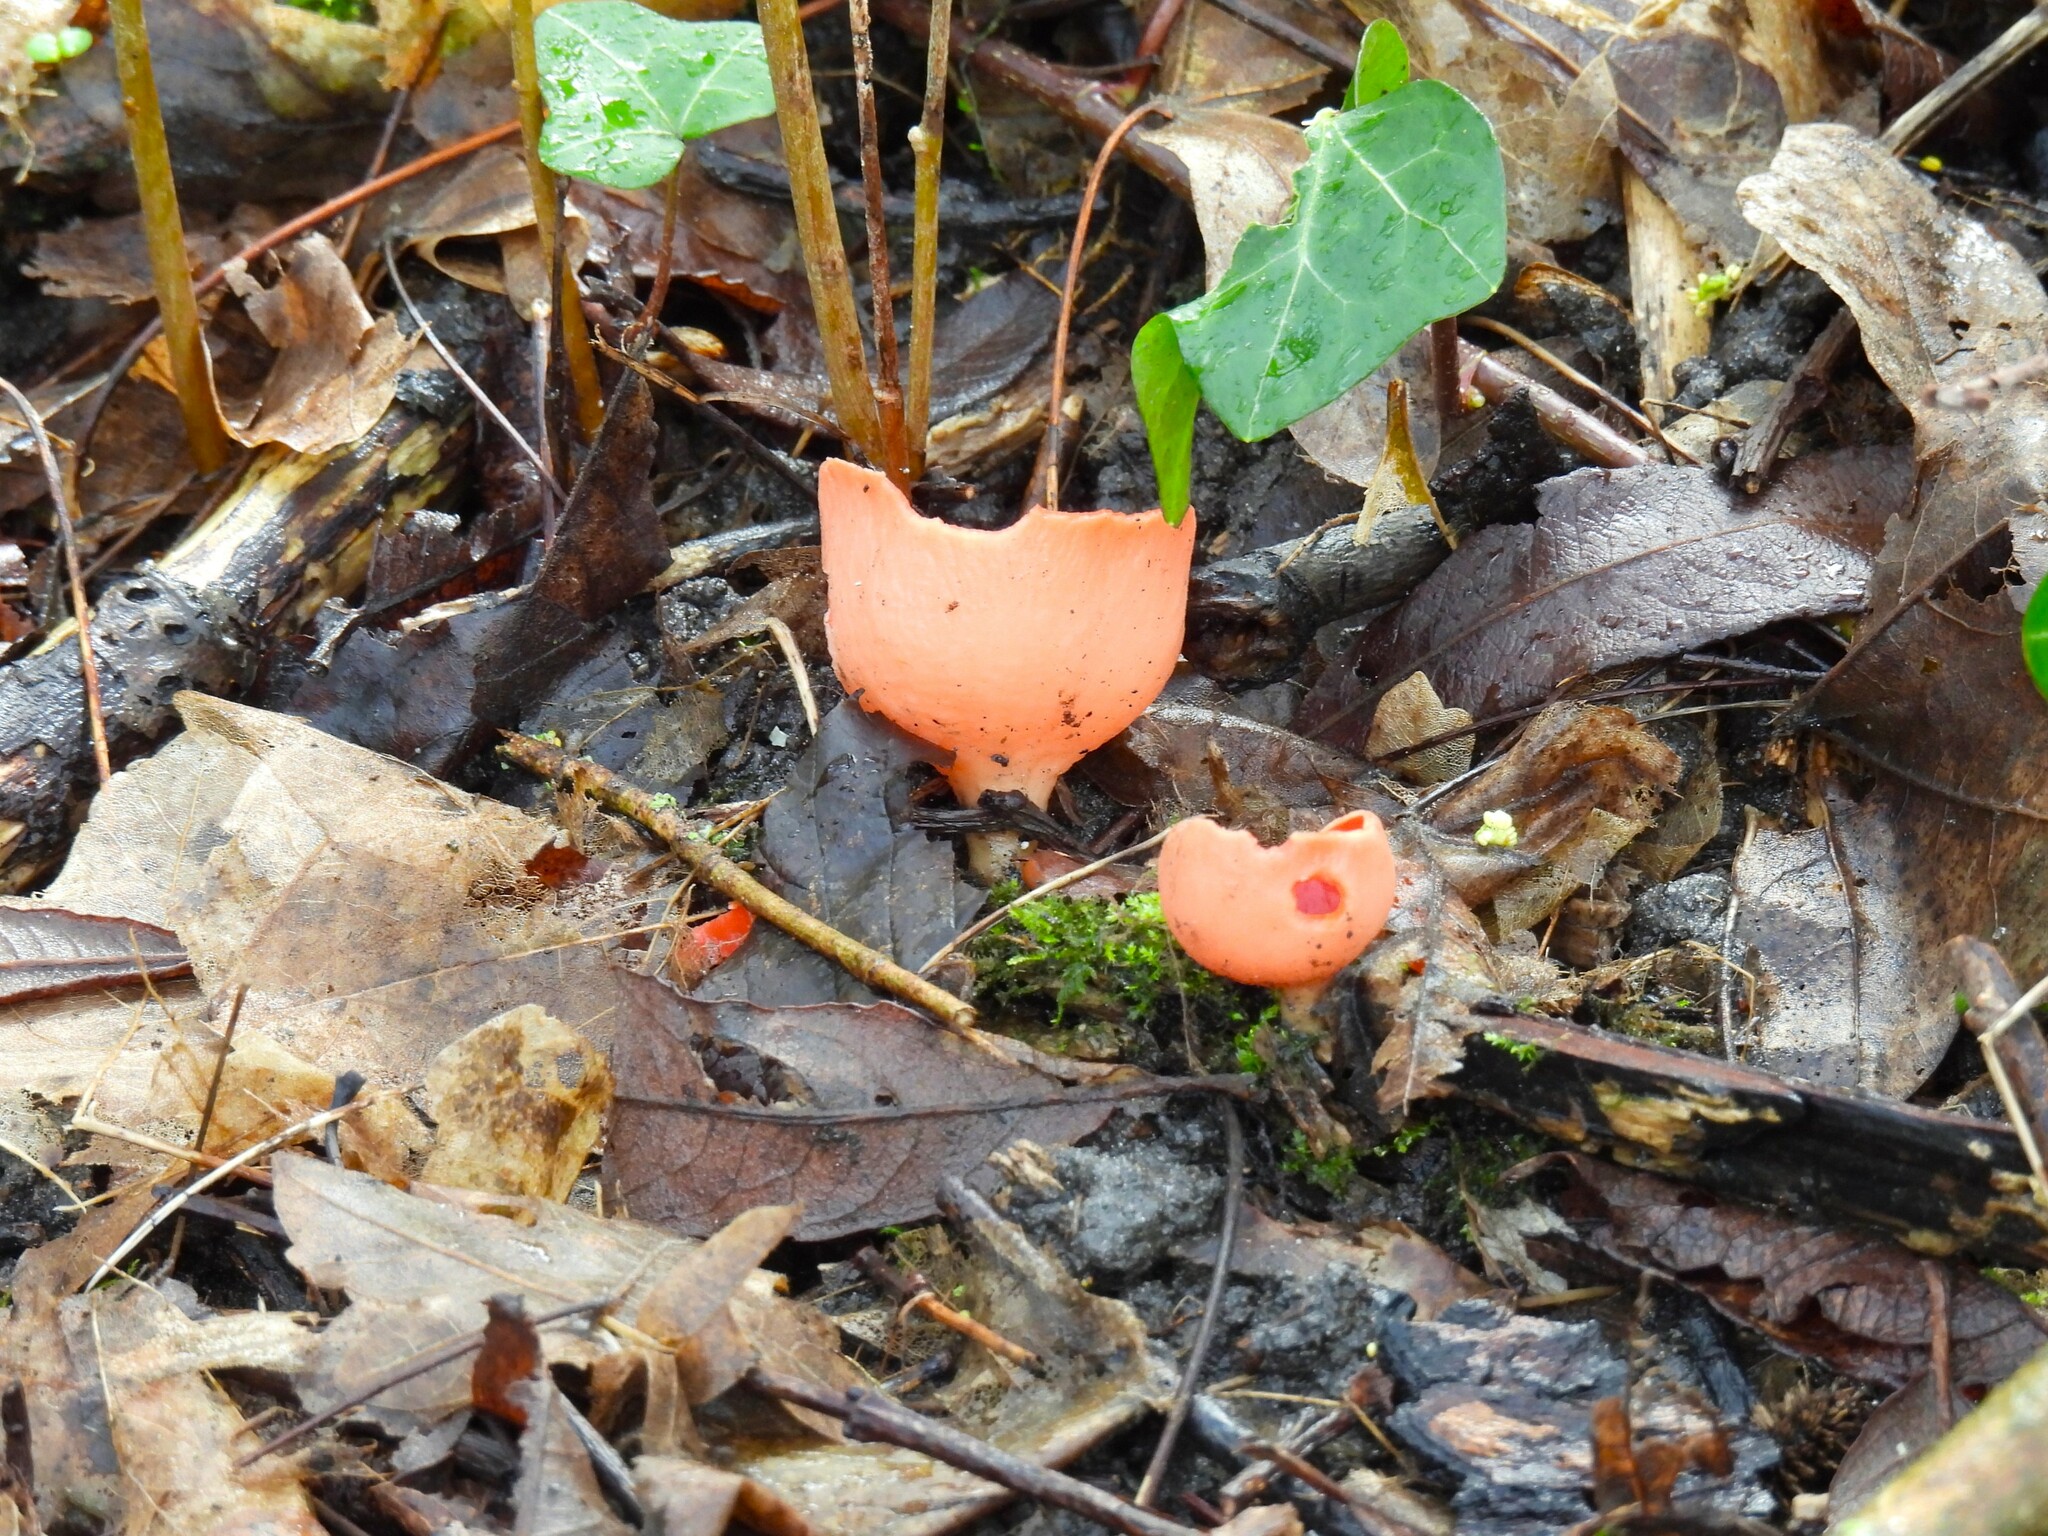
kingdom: Fungi
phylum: Ascomycota
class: Pezizomycetes
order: Pezizales
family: Sarcoscyphaceae
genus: Sarcoscypha
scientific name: Sarcoscypha
